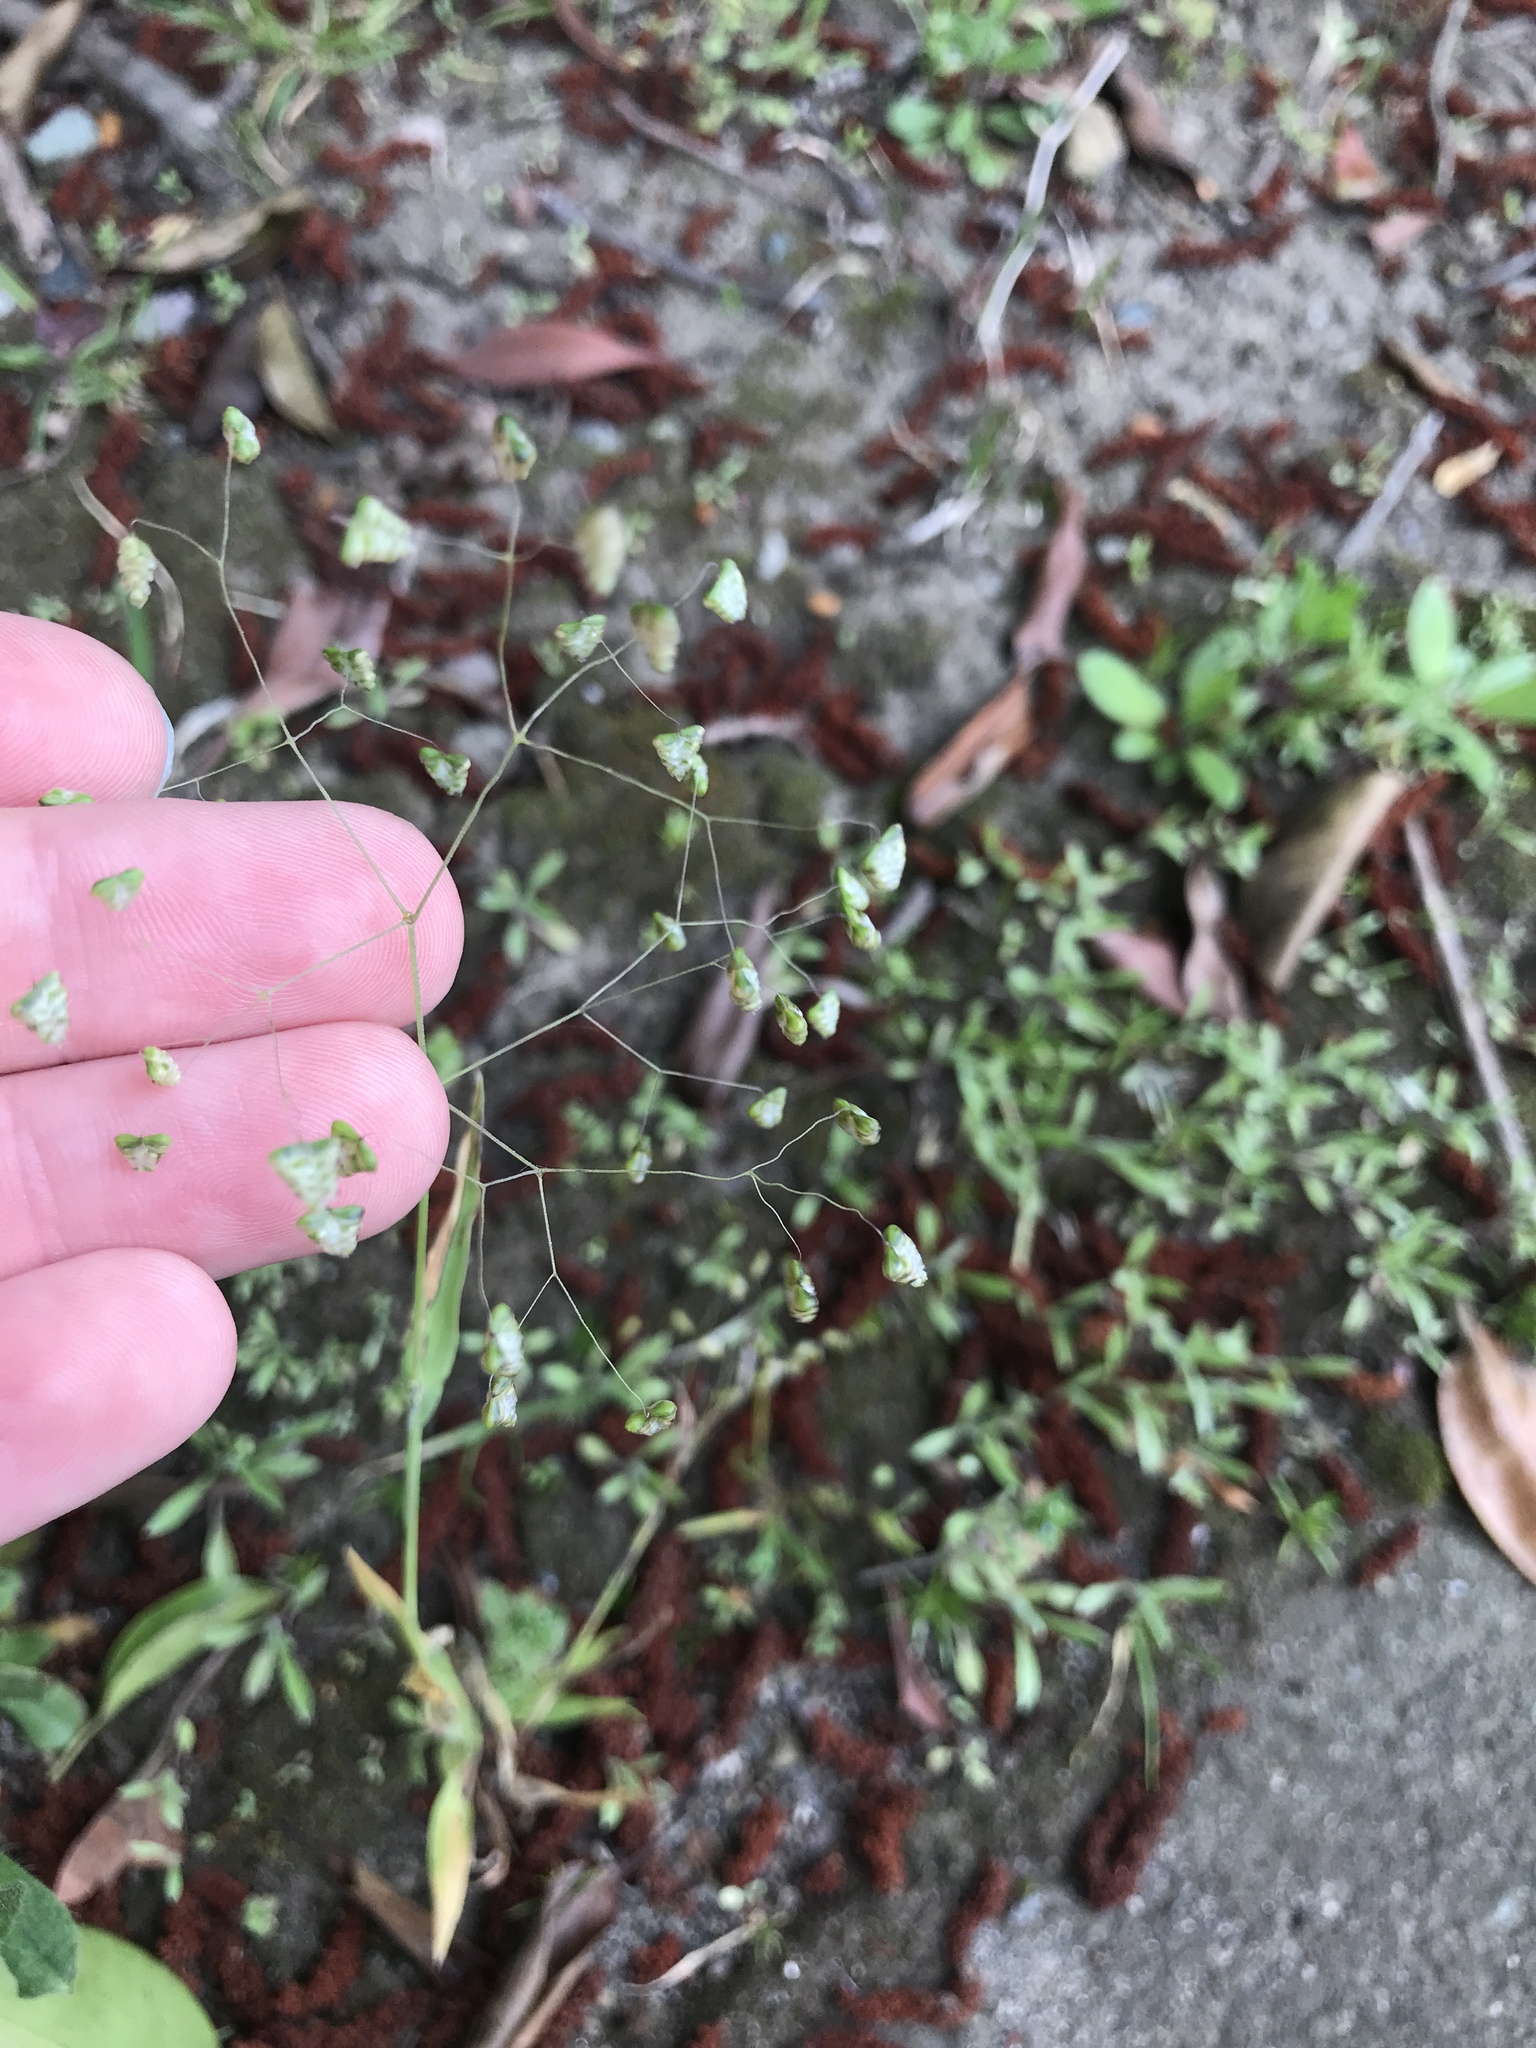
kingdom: Plantae
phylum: Tracheophyta
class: Liliopsida
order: Poales
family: Poaceae
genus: Briza
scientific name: Briza minor
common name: Lesser quaking-grass
